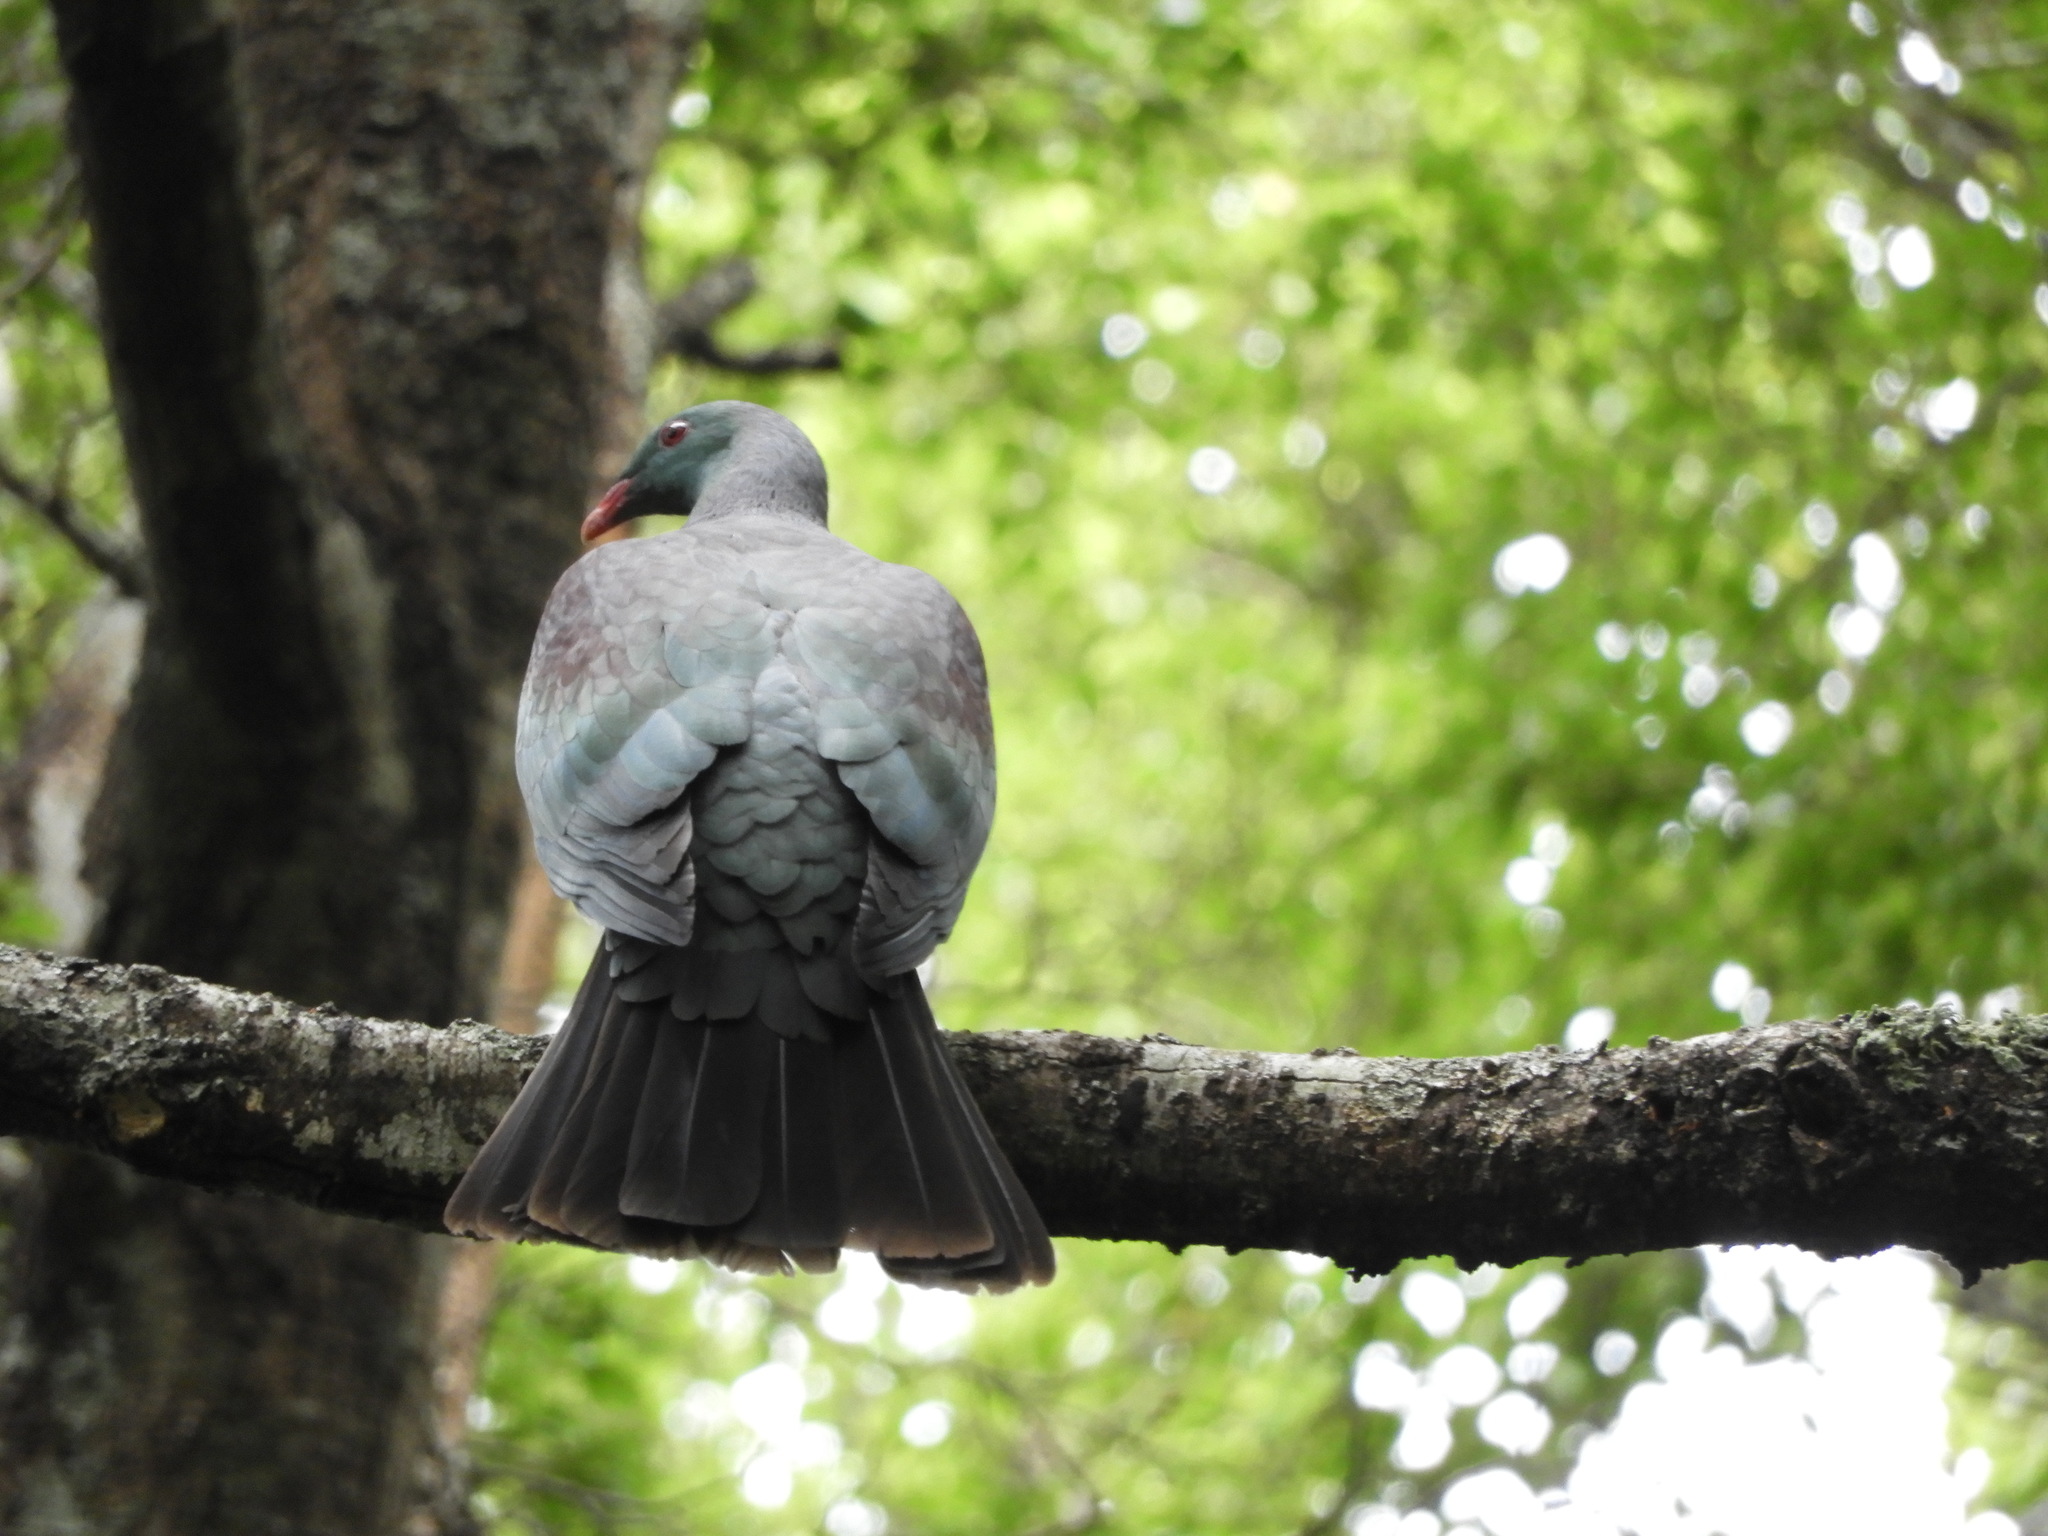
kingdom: Animalia
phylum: Chordata
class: Aves
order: Columbiformes
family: Columbidae
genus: Hemiphaga
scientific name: Hemiphaga novaeseelandiae
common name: New zealand pigeon
